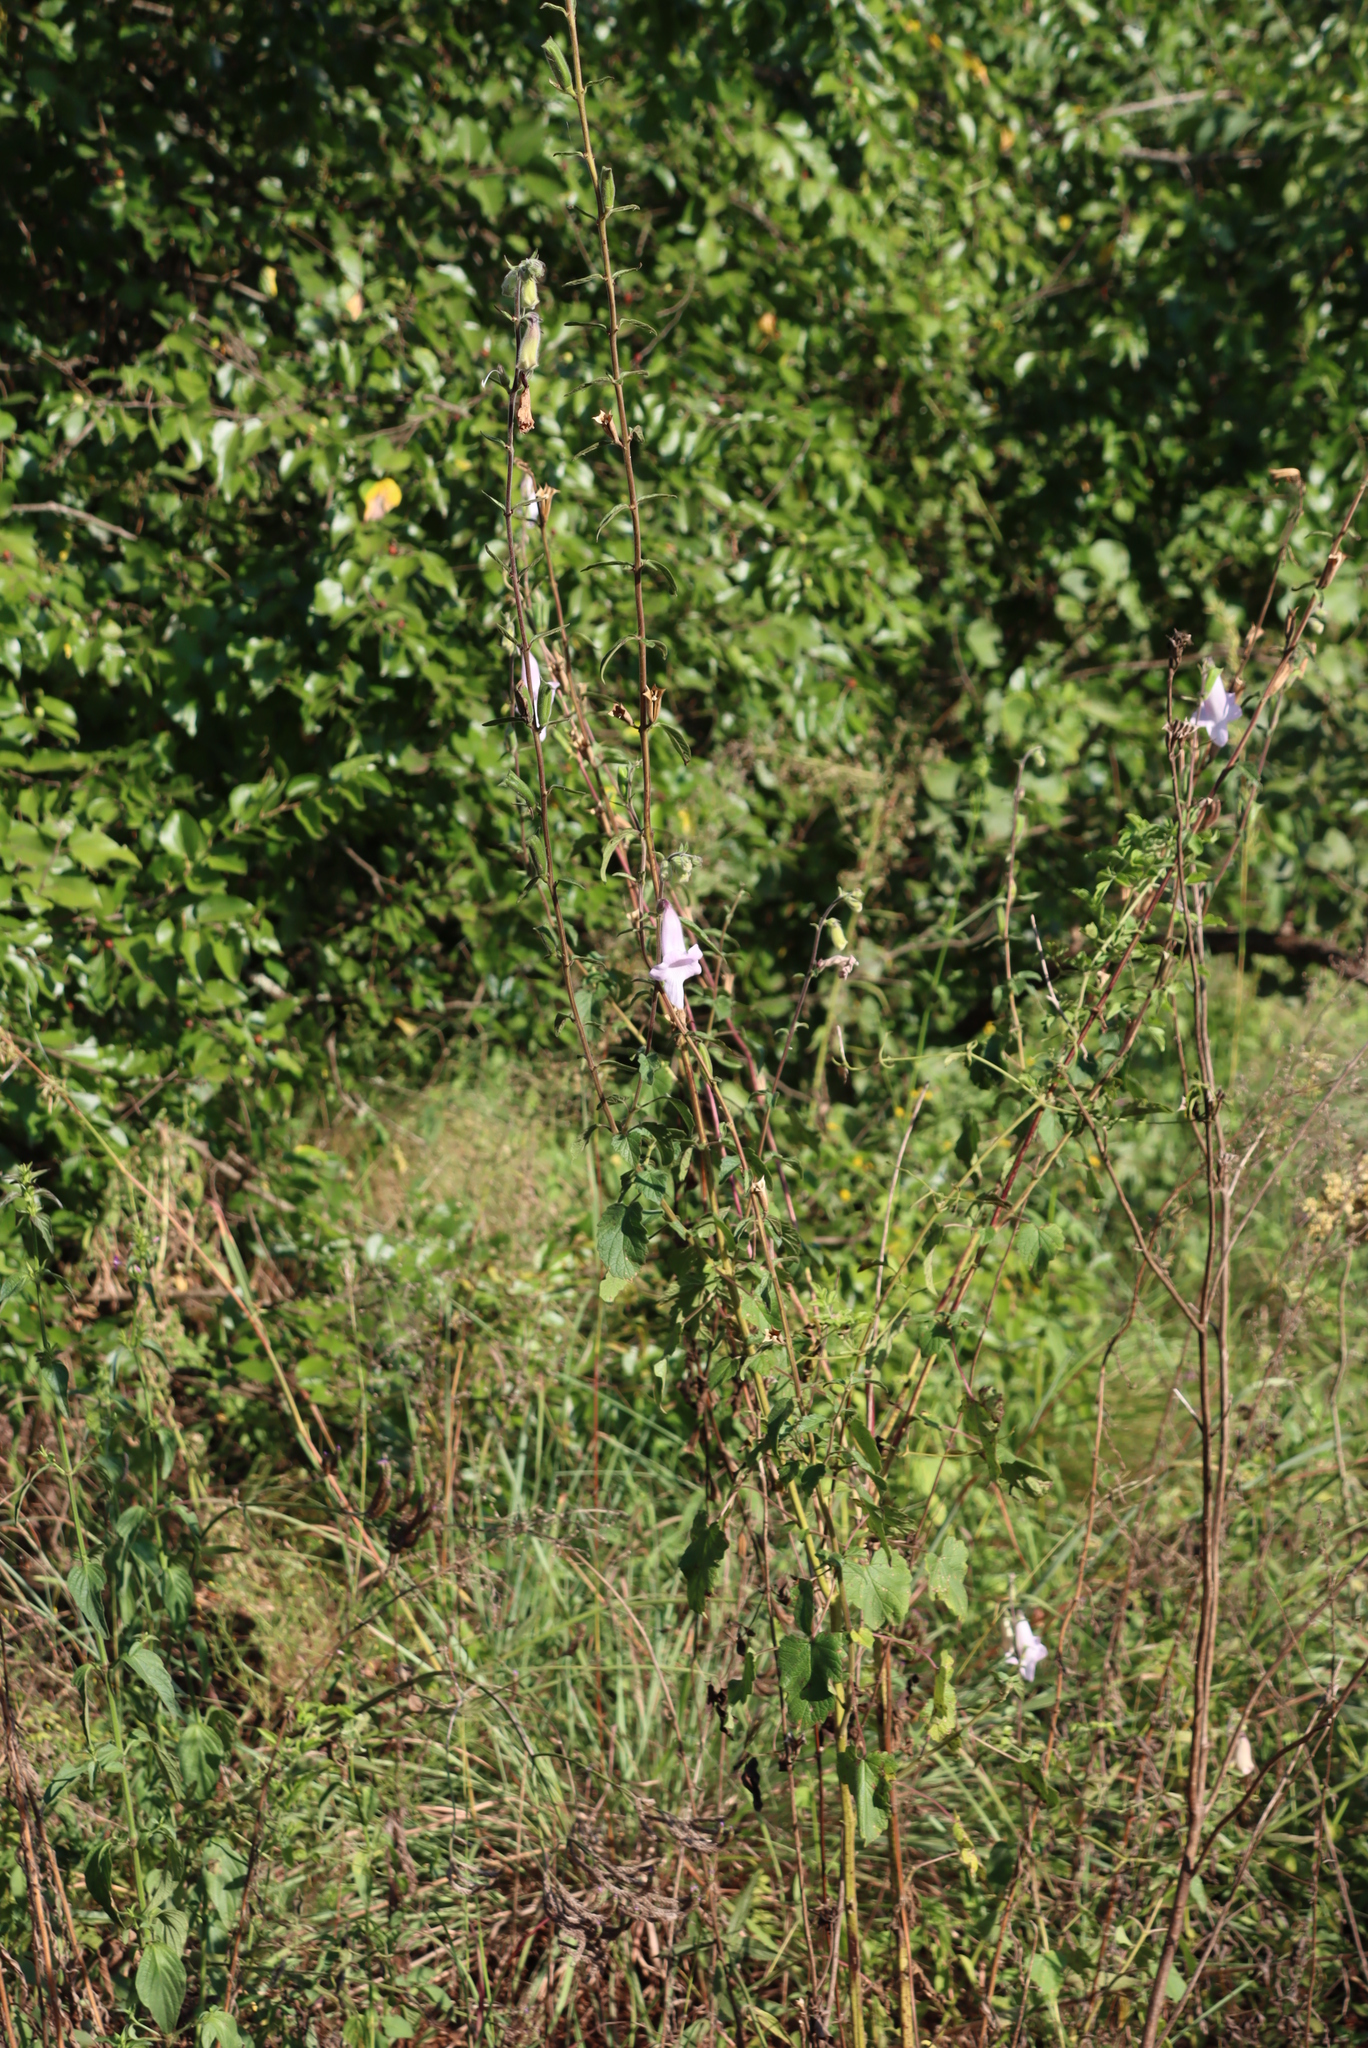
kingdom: Plantae
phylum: Tracheophyta
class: Magnoliopsida
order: Lamiales
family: Pedaliaceae
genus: Sesamum
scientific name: Sesamum trilobum
